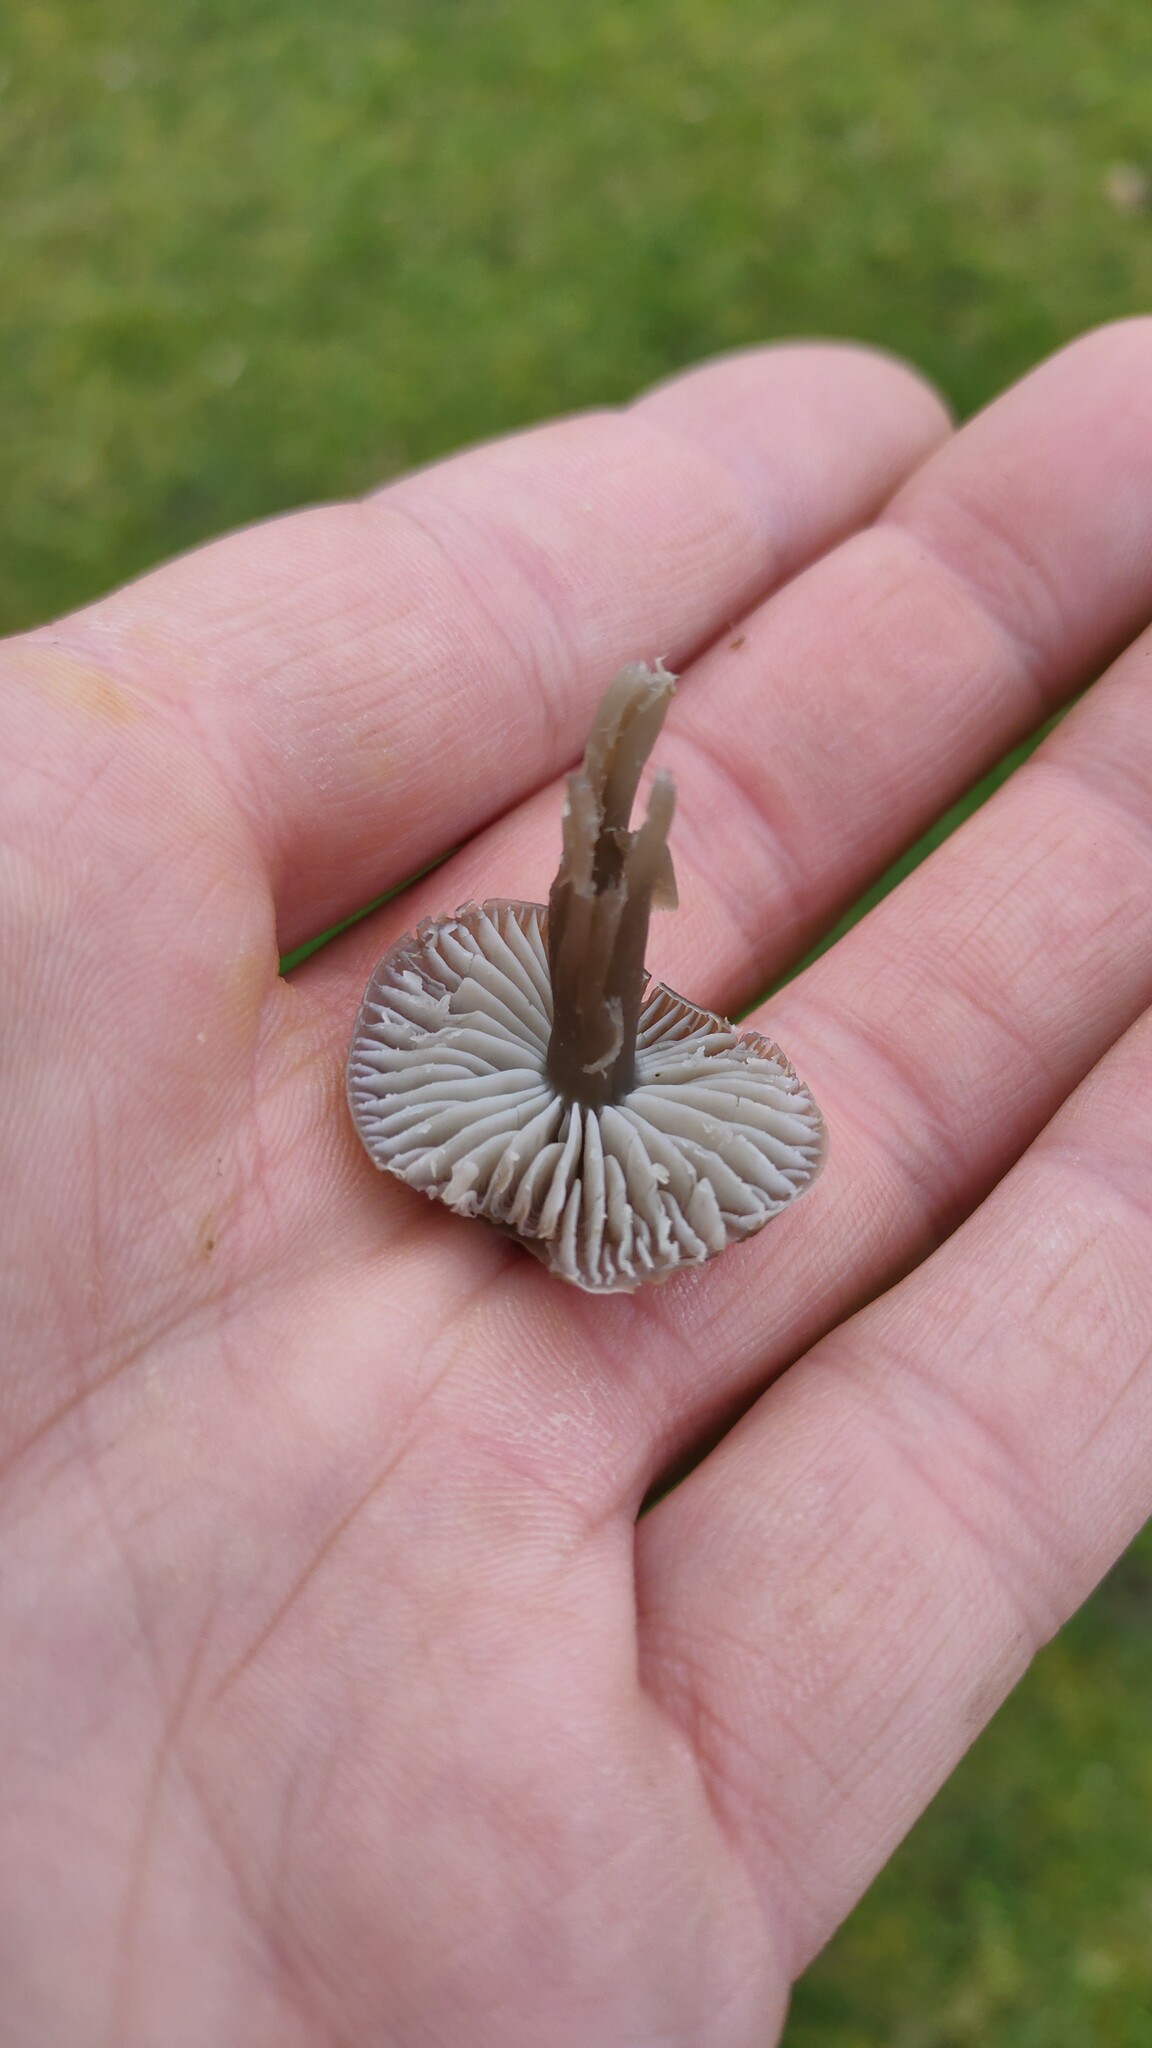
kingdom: Fungi
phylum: Basidiomycota
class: Agaricomycetes
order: Agaricales
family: Hygrophoraceae
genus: Gliophorus
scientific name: Gliophorus irrigatus
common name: Slimy waxcap
